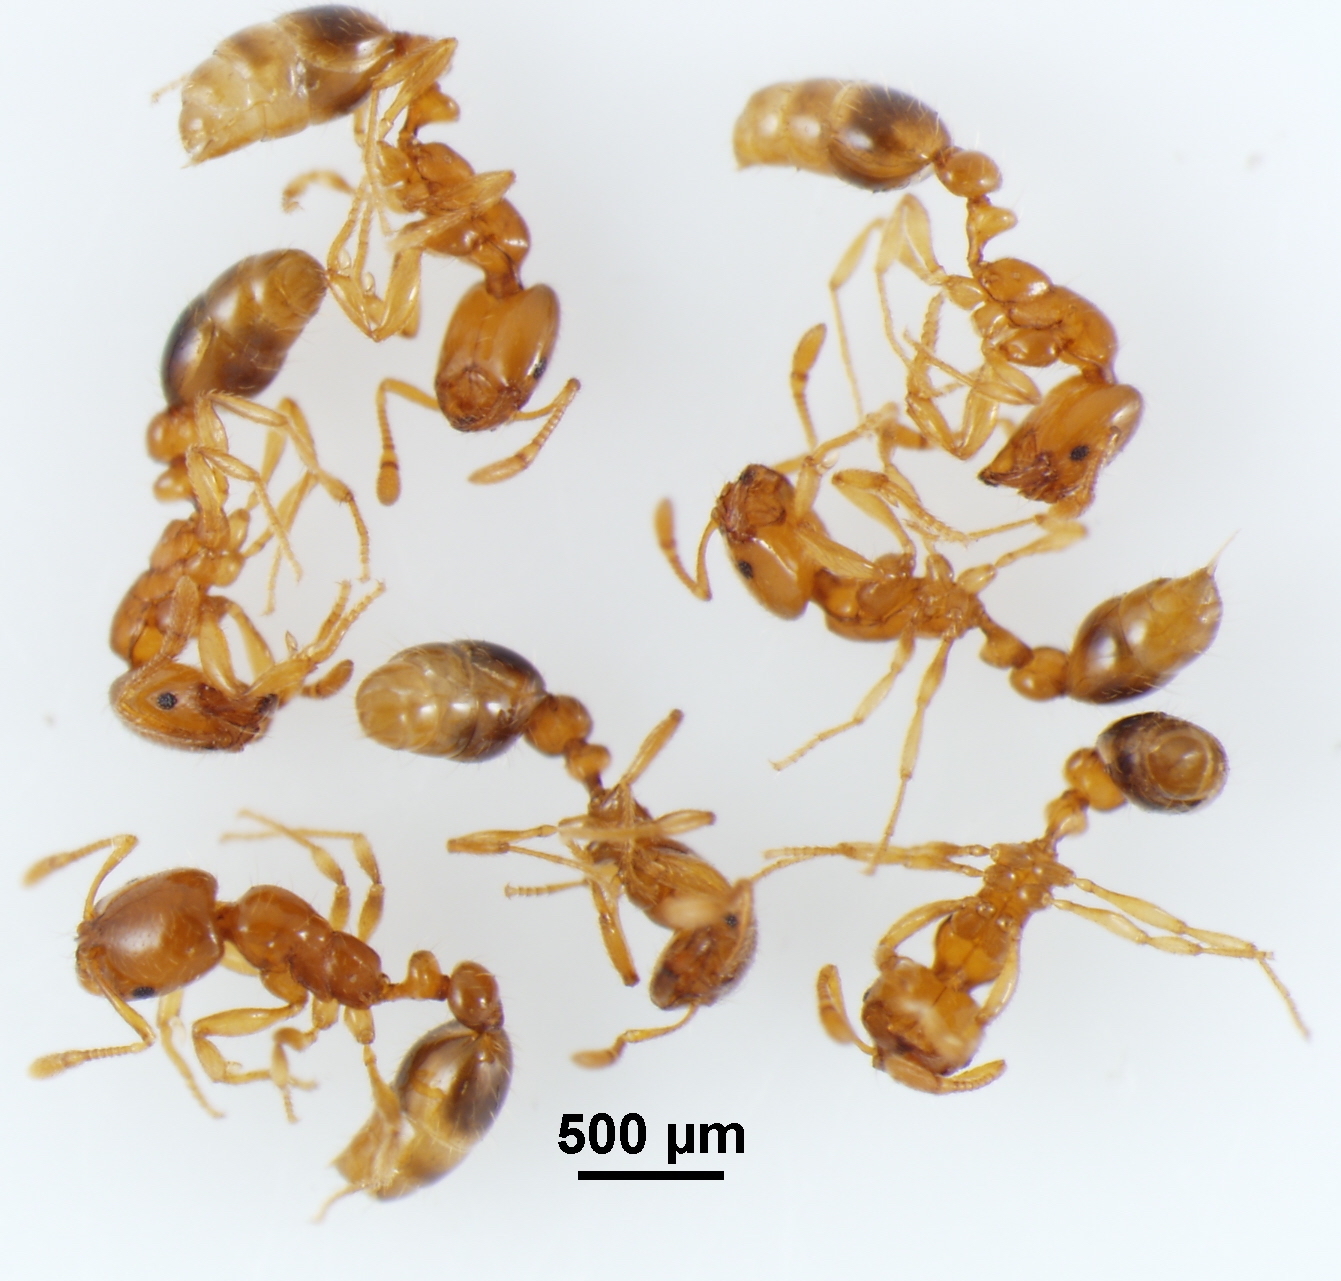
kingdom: Animalia
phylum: Arthropoda
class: Insecta
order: Hymenoptera
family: Formicidae
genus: Solenopsis
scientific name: Solenopsis globularia
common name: Ant
